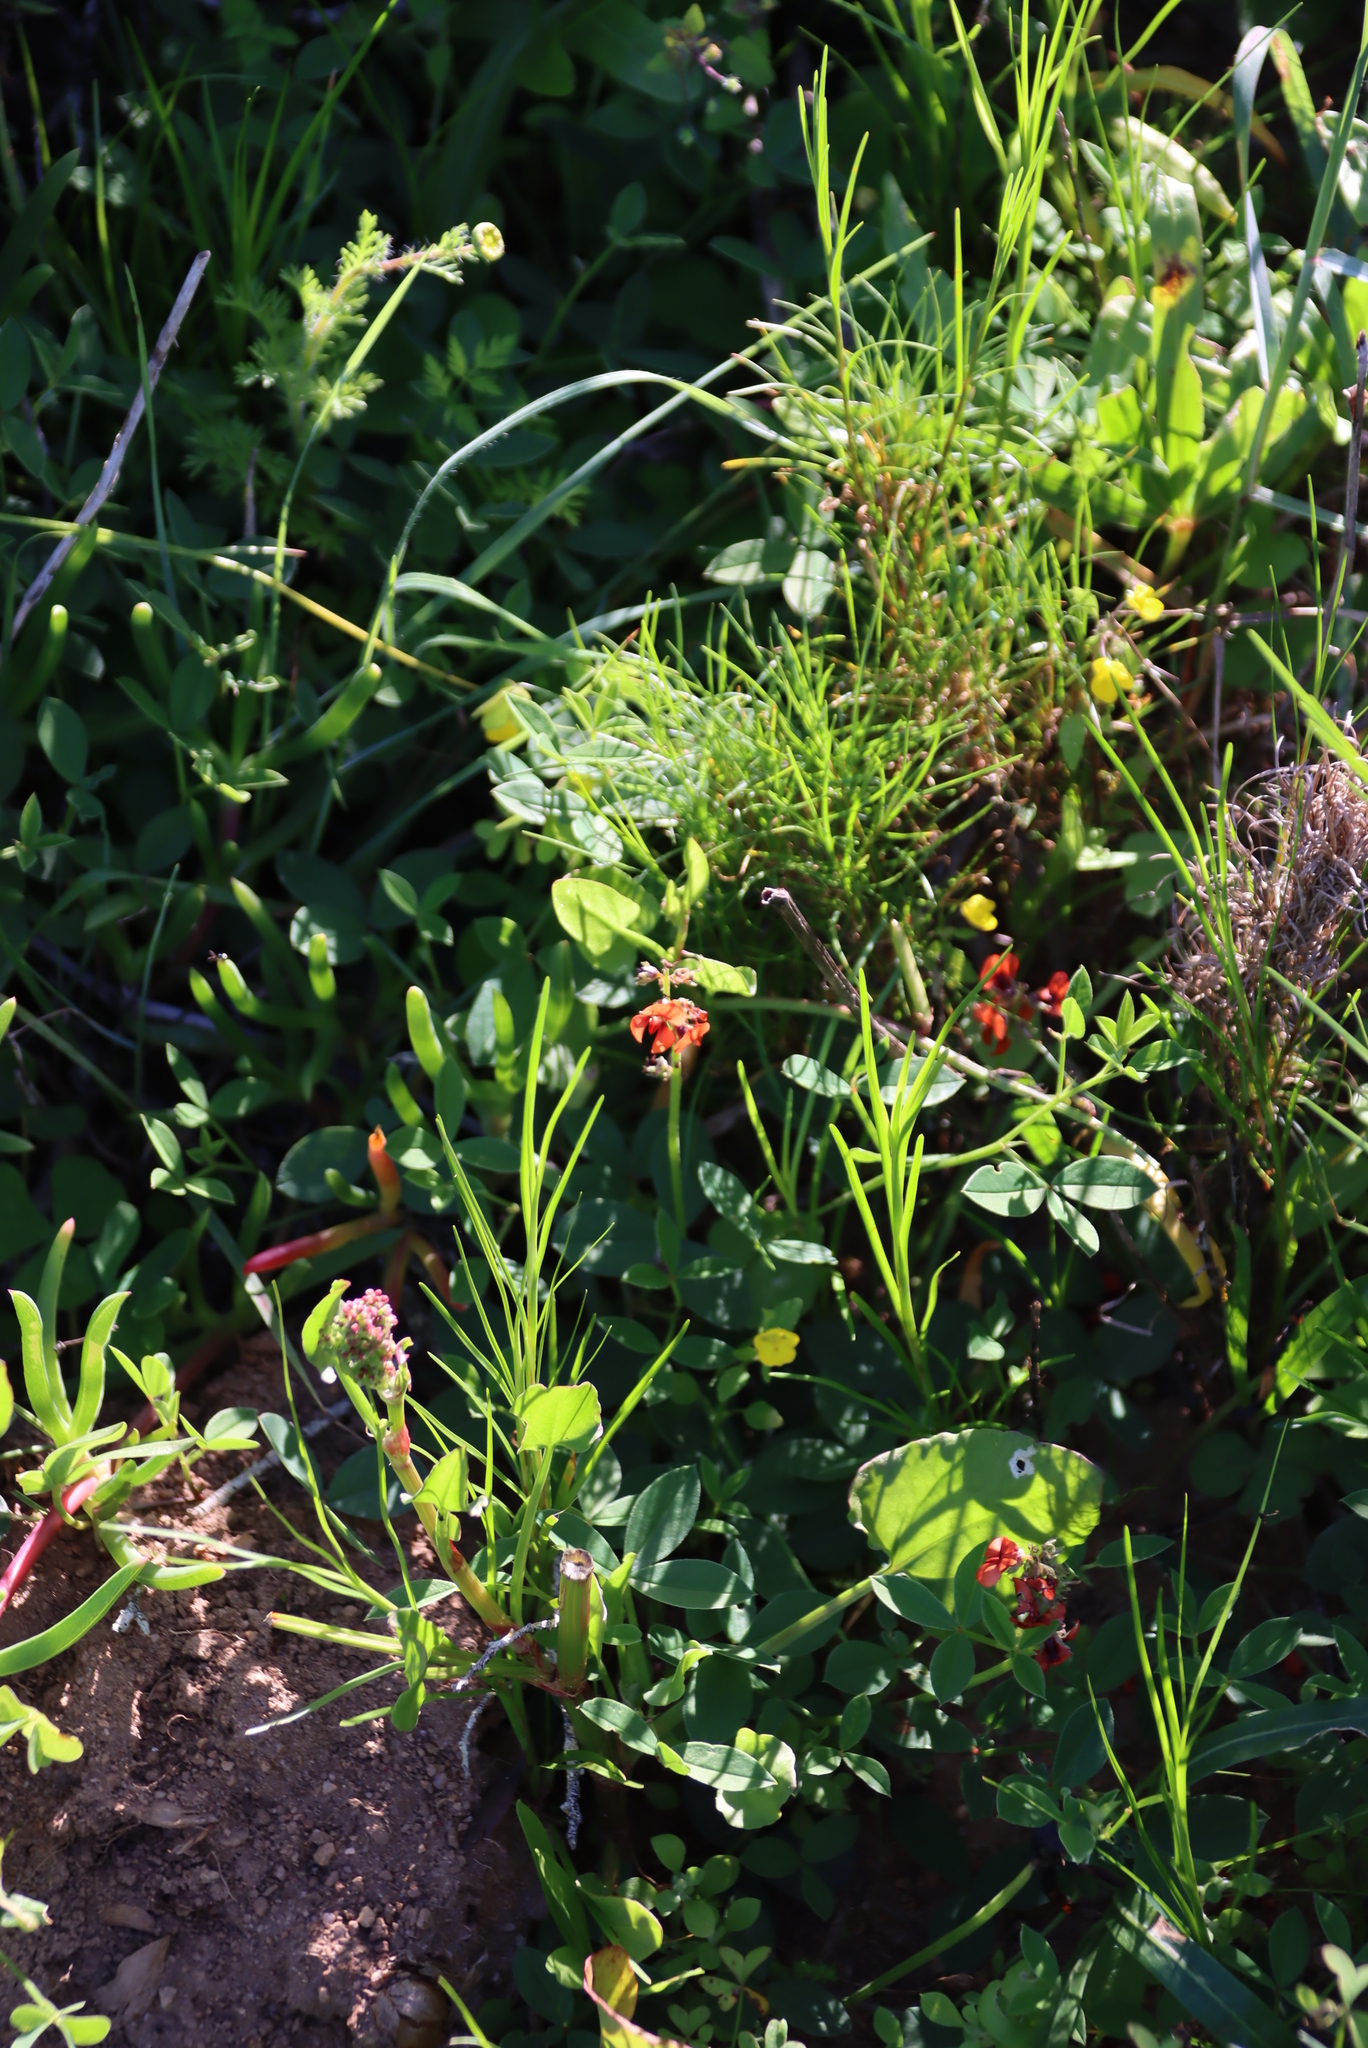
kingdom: Plantae
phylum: Tracheophyta
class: Magnoliopsida
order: Fabales
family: Fabaceae
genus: Indigofera
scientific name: Indigofera
